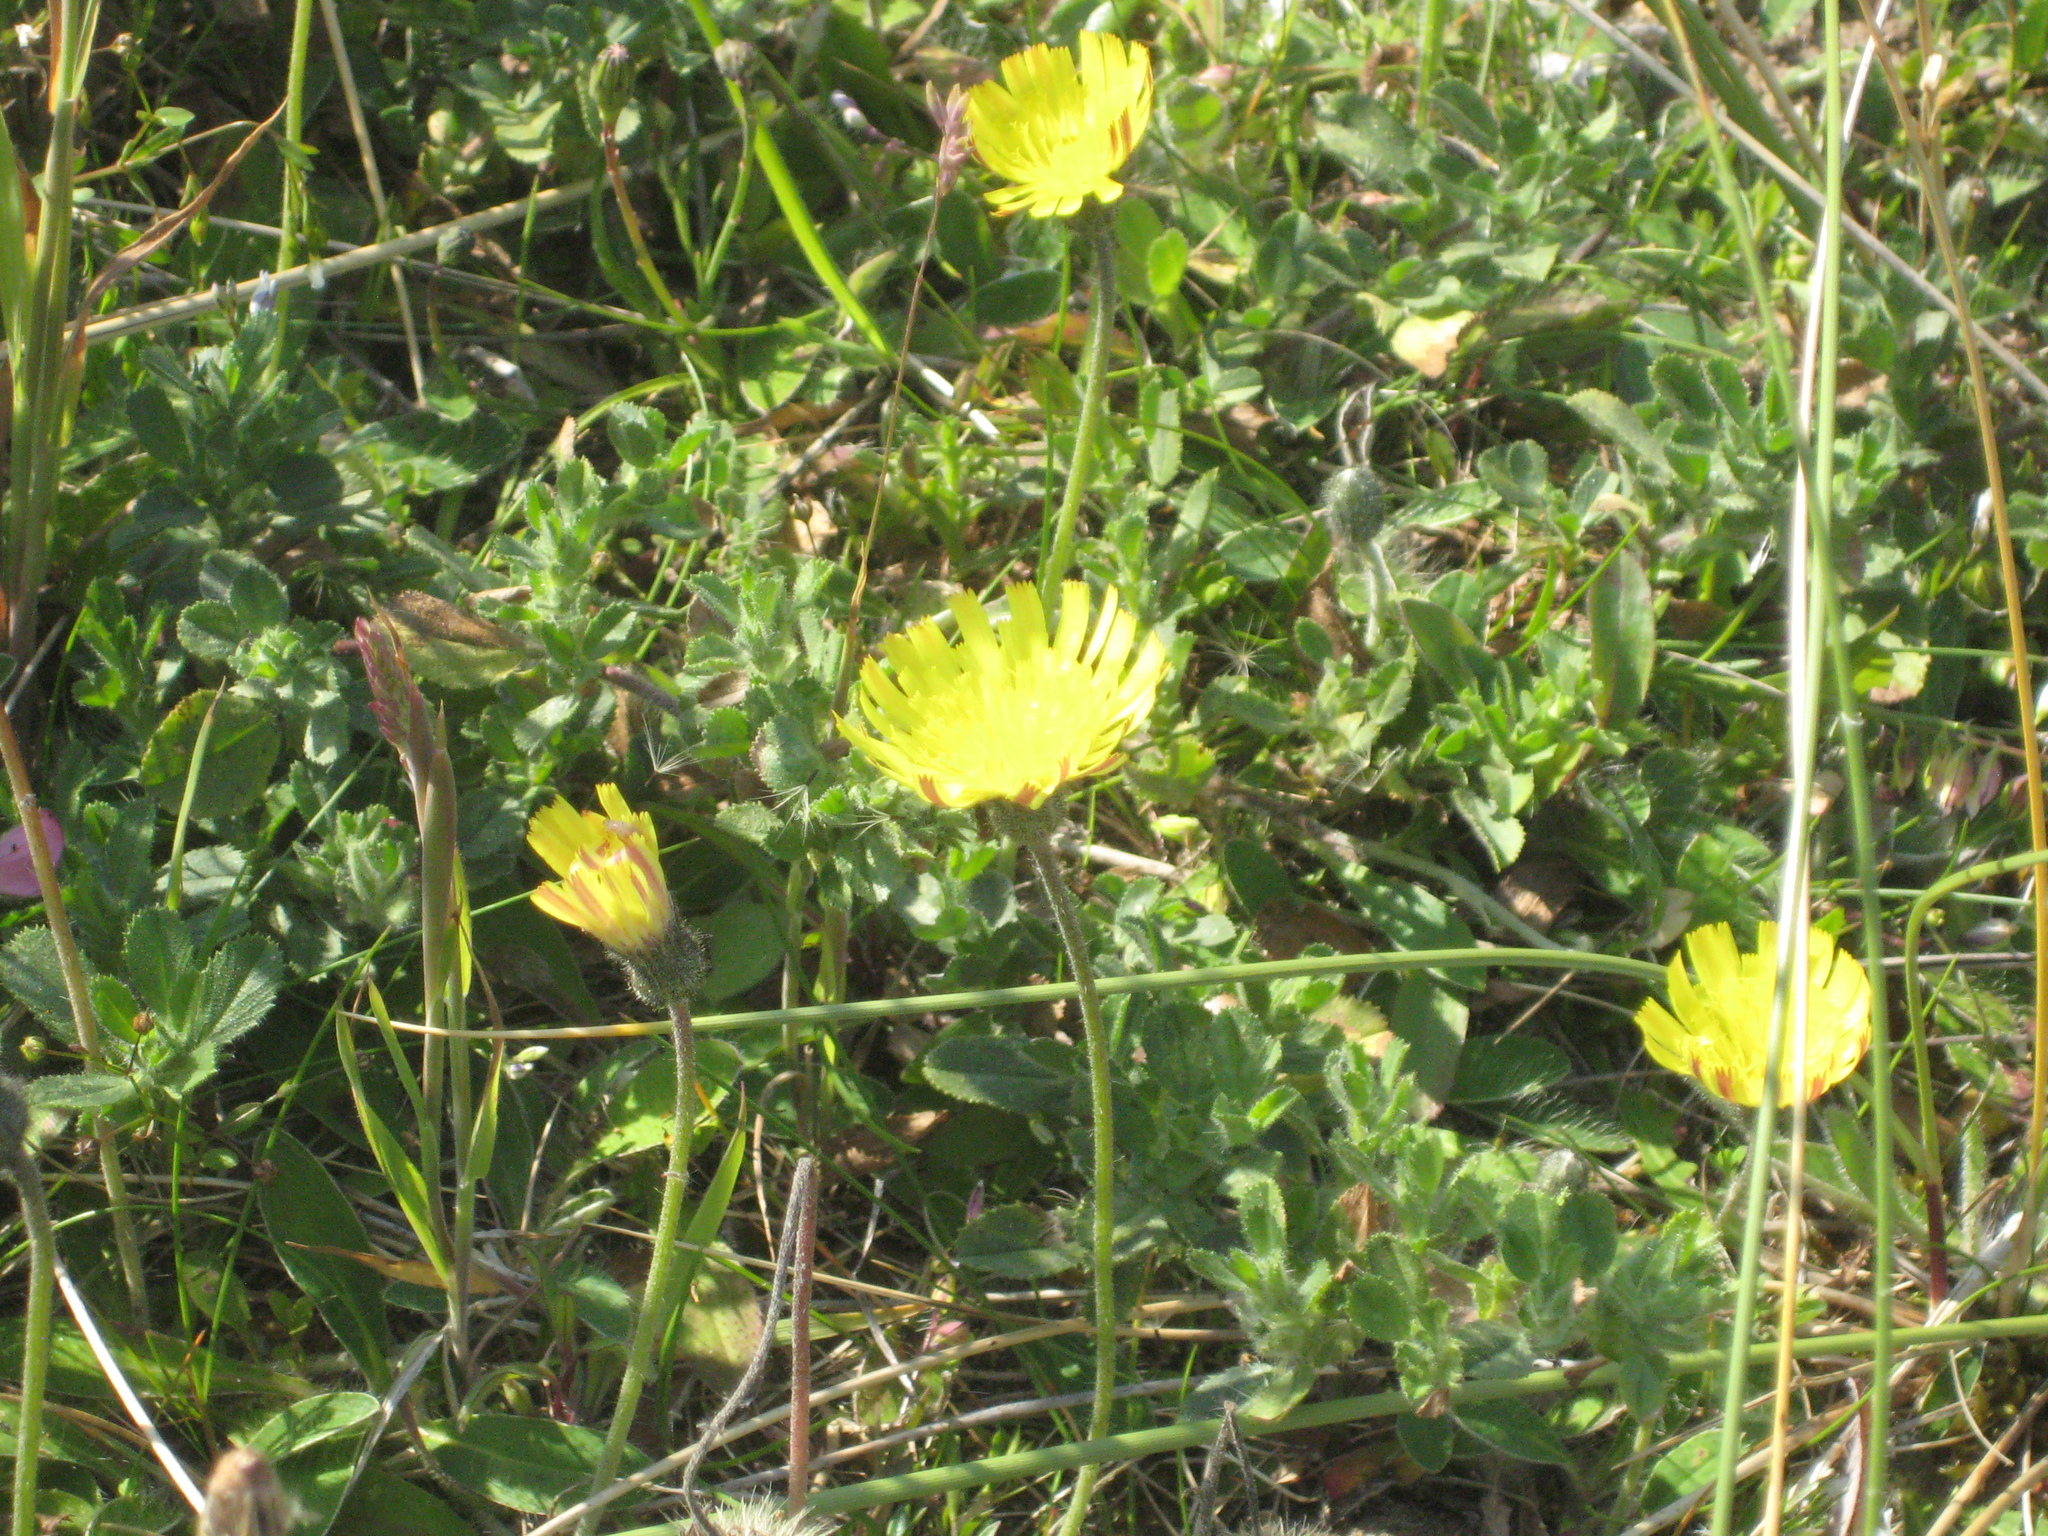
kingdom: Plantae
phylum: Tracheophyta
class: Magnoliopsida
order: Asterales
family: Asteraceae
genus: Pilosella
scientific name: Pilosella officinarum
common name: Mouse-ear hawkweed
